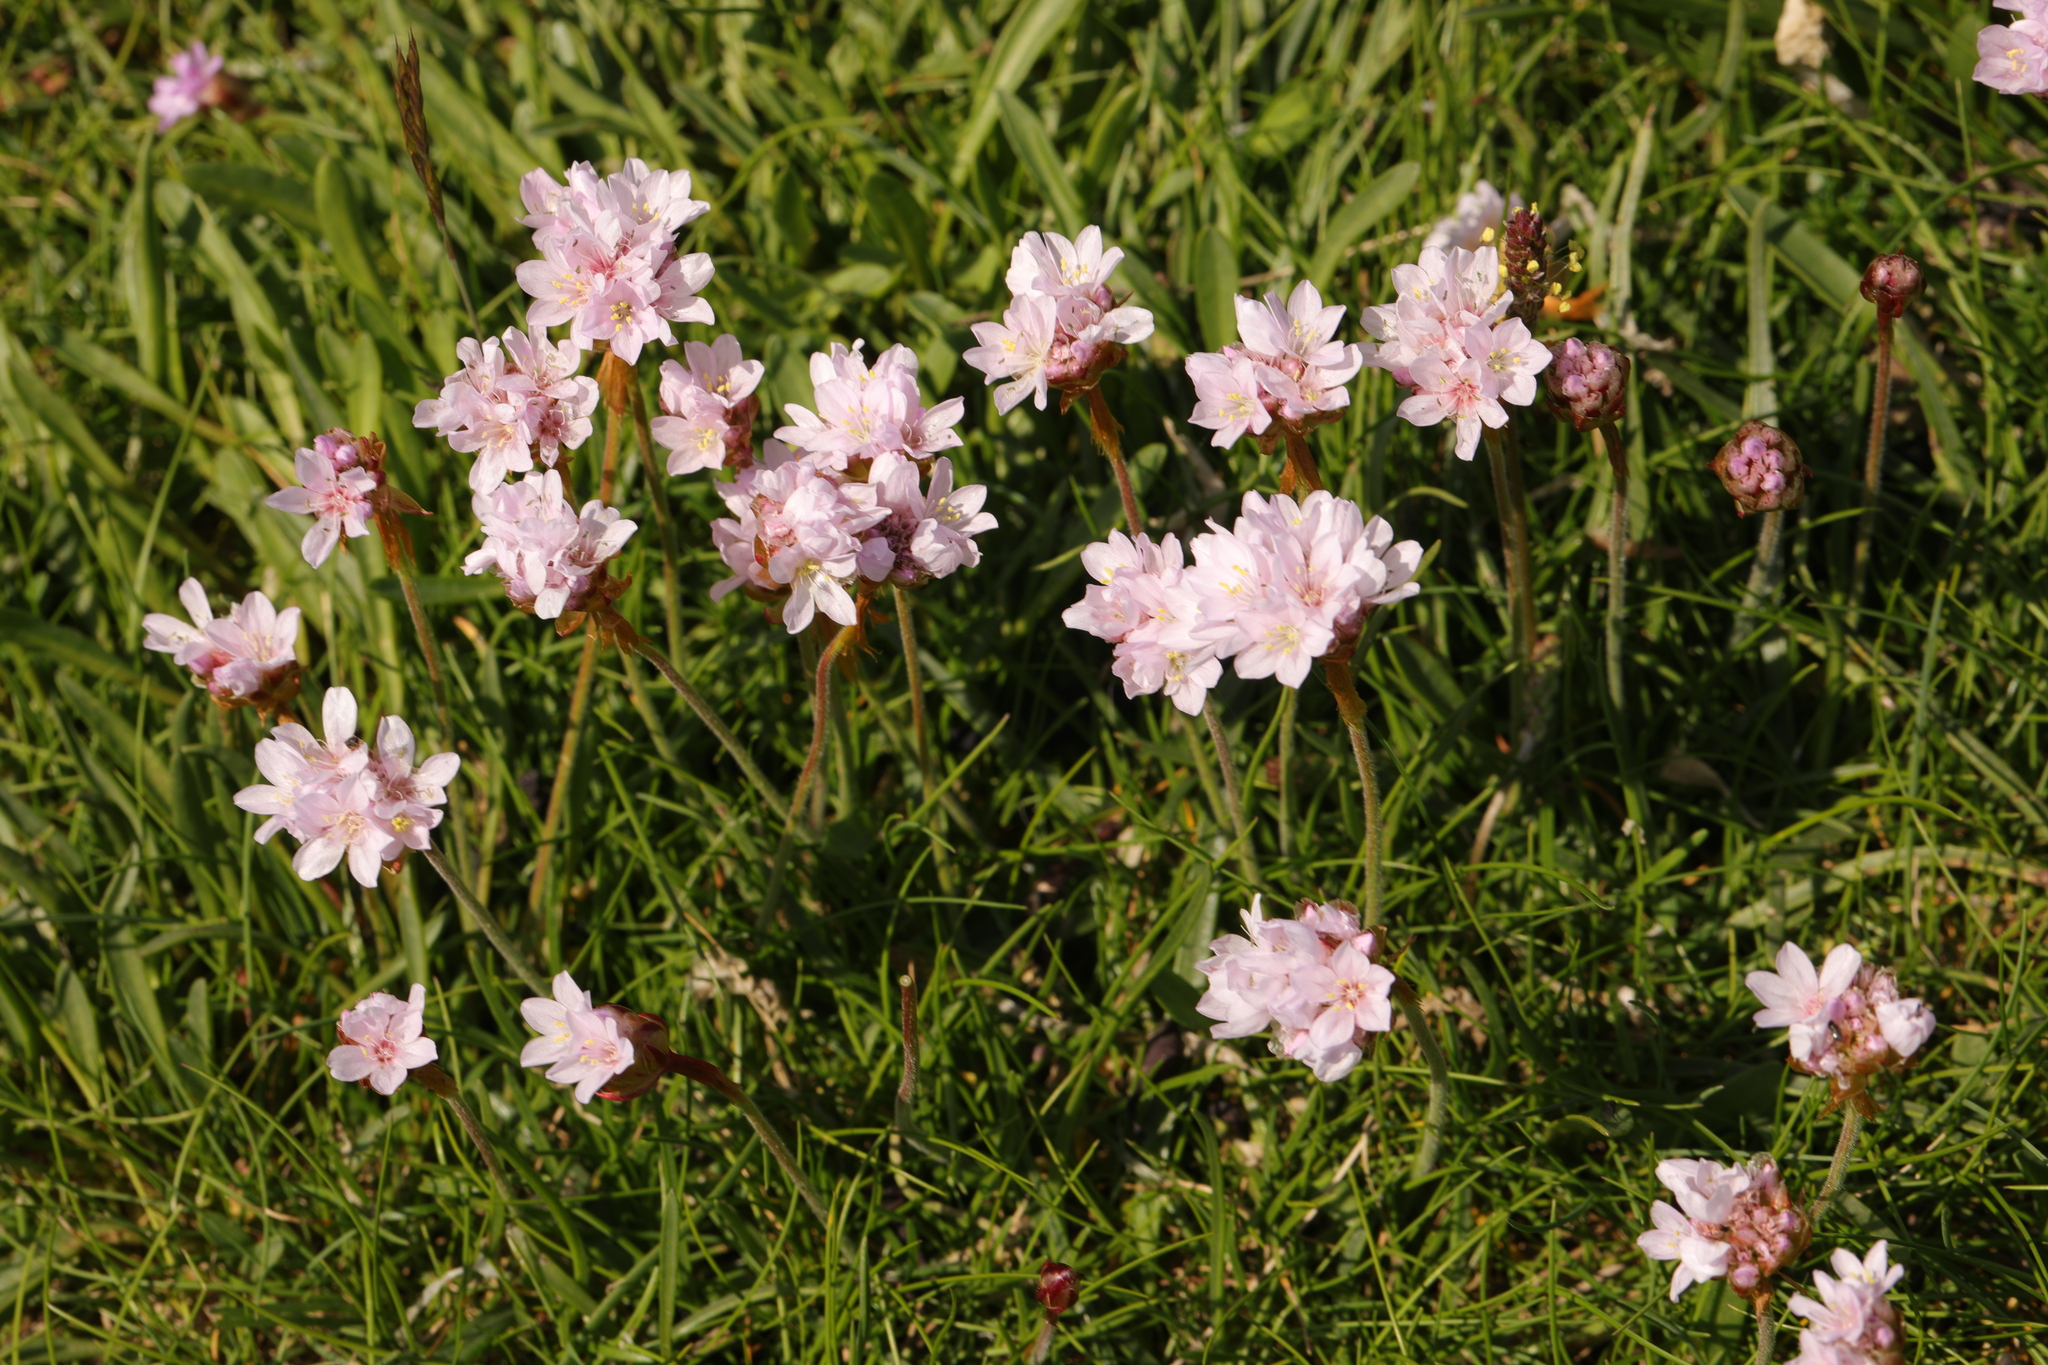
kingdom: Plantae
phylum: Tracheophyta
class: Magnoliopsida
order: Caryophyllales
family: Plumbaginaceae
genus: Armeria
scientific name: Armeria maritima
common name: Thrift
